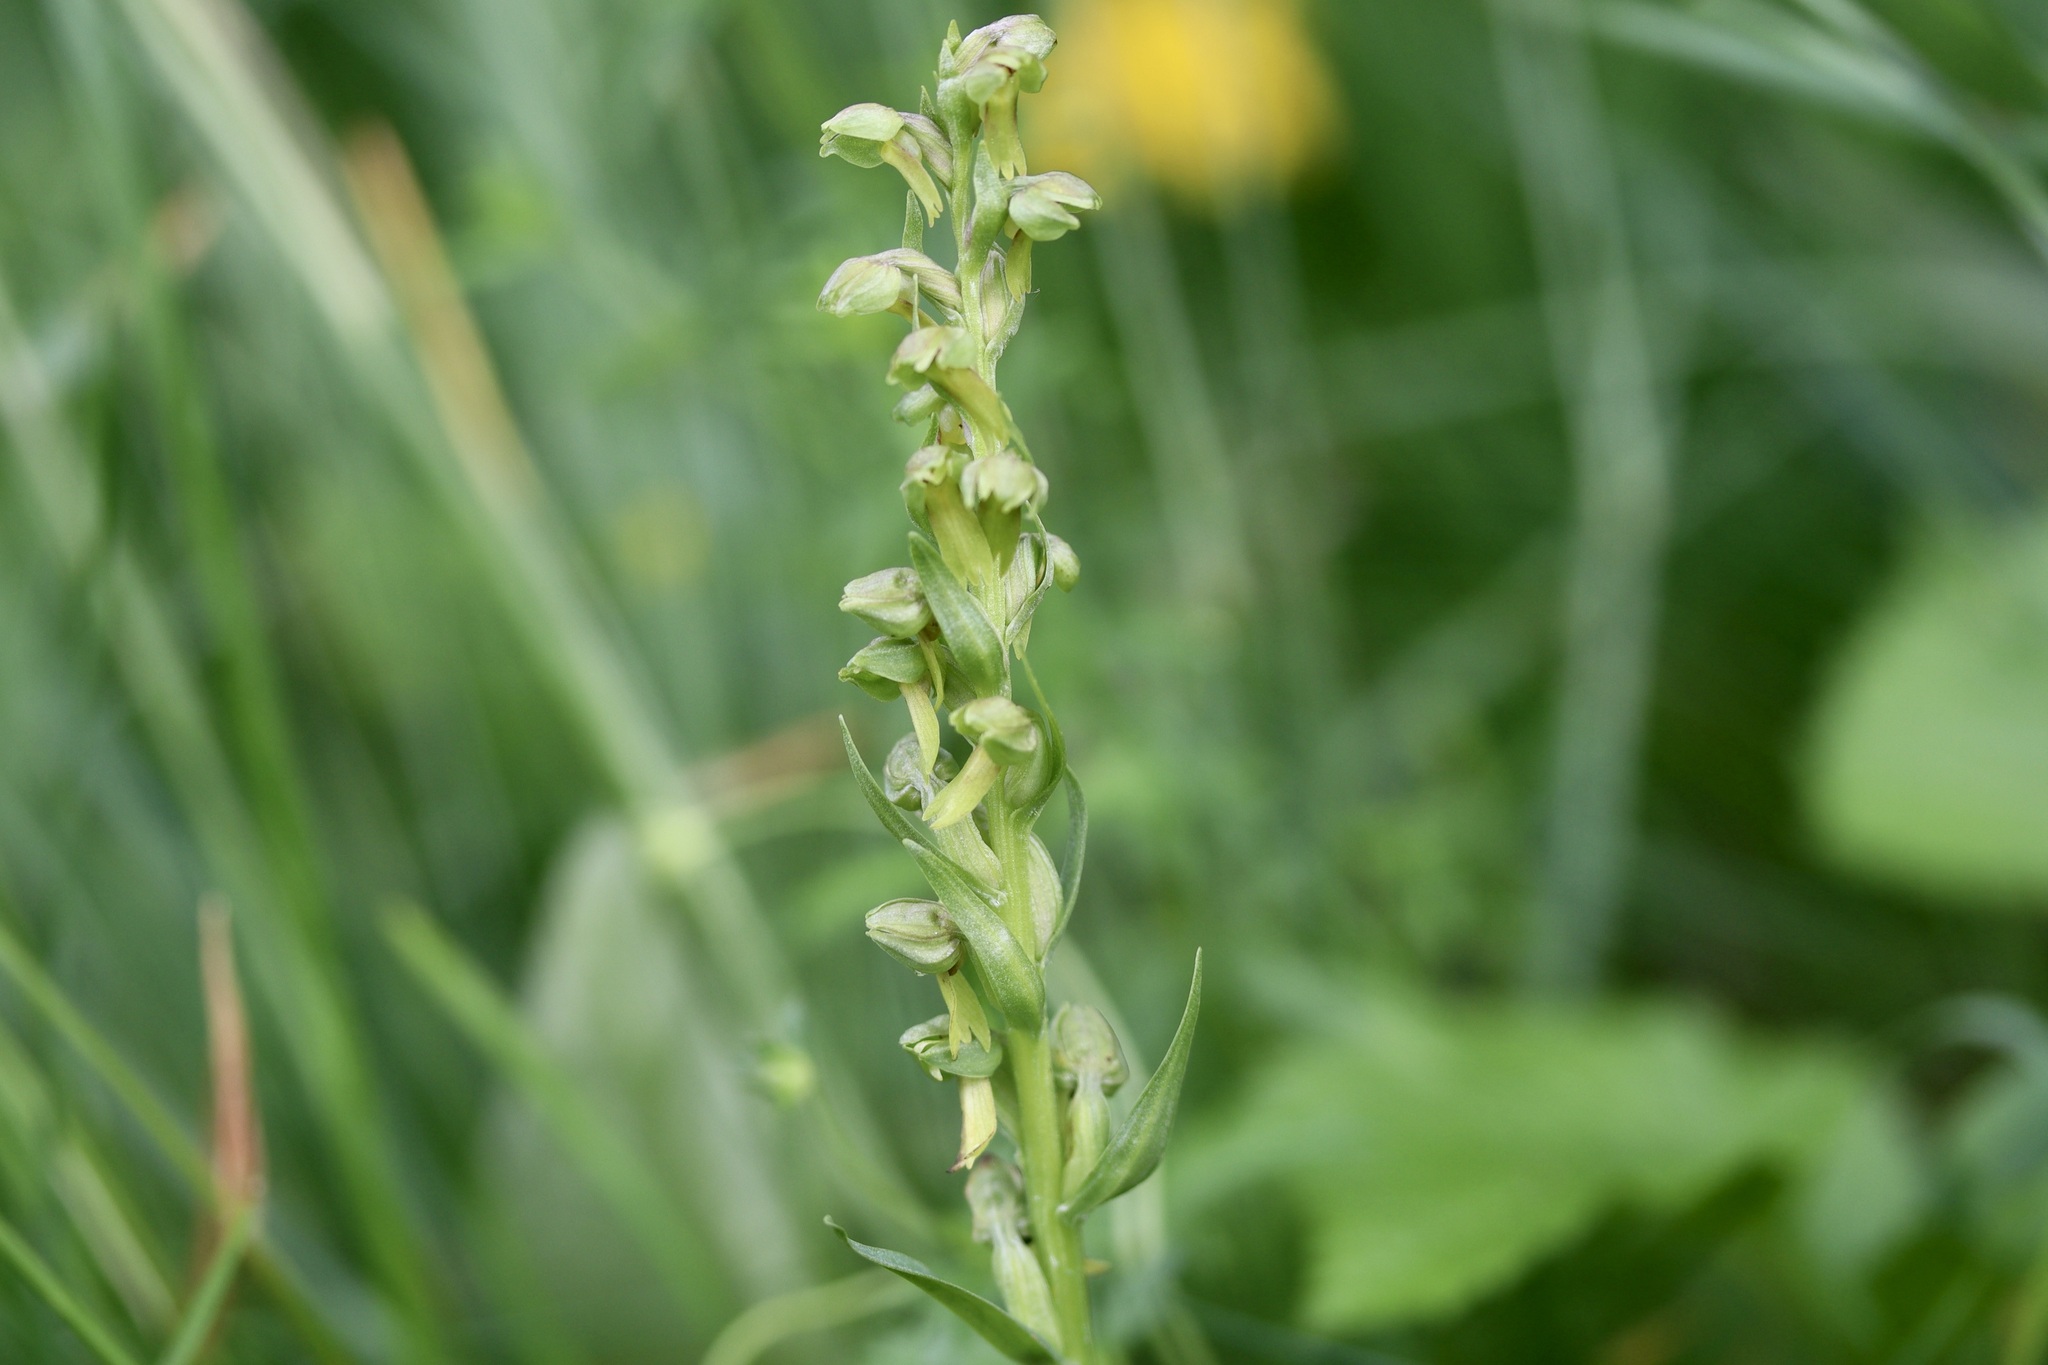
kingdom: Plantae
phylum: Tracheophyta
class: Liliopsida
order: Asparagales
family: Orchidaceae
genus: Dactylorhiza
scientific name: Dactylorhiza viridis
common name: Longbract frog orchid
